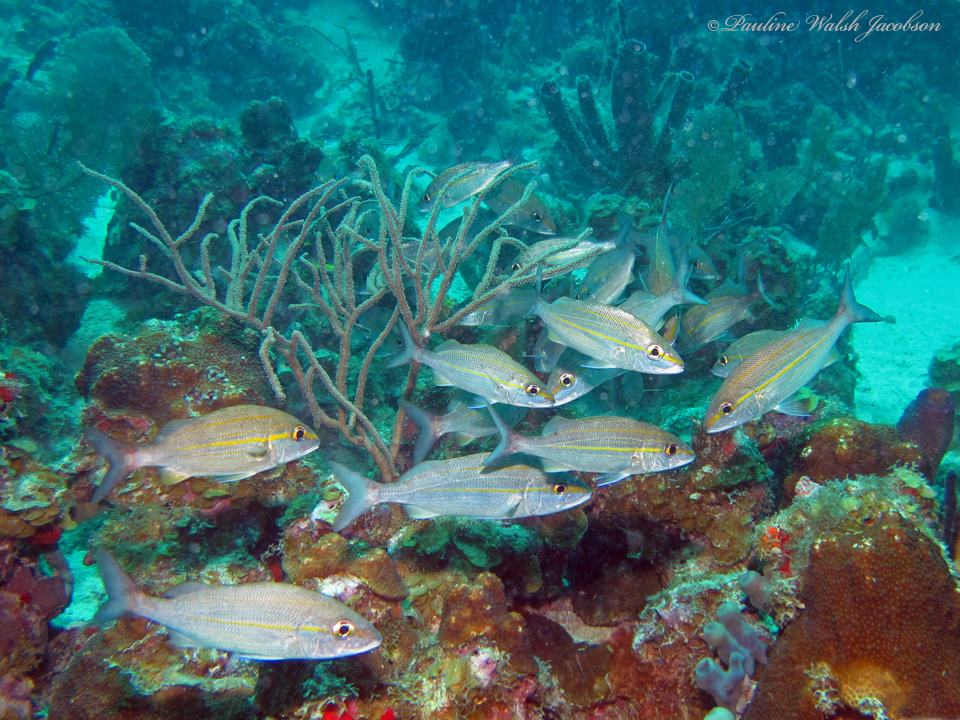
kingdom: Animalia
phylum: Chordata
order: Perciformes
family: Haemulidae
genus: Haemulon
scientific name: Haemulon aurolineatum
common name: Tomtate
